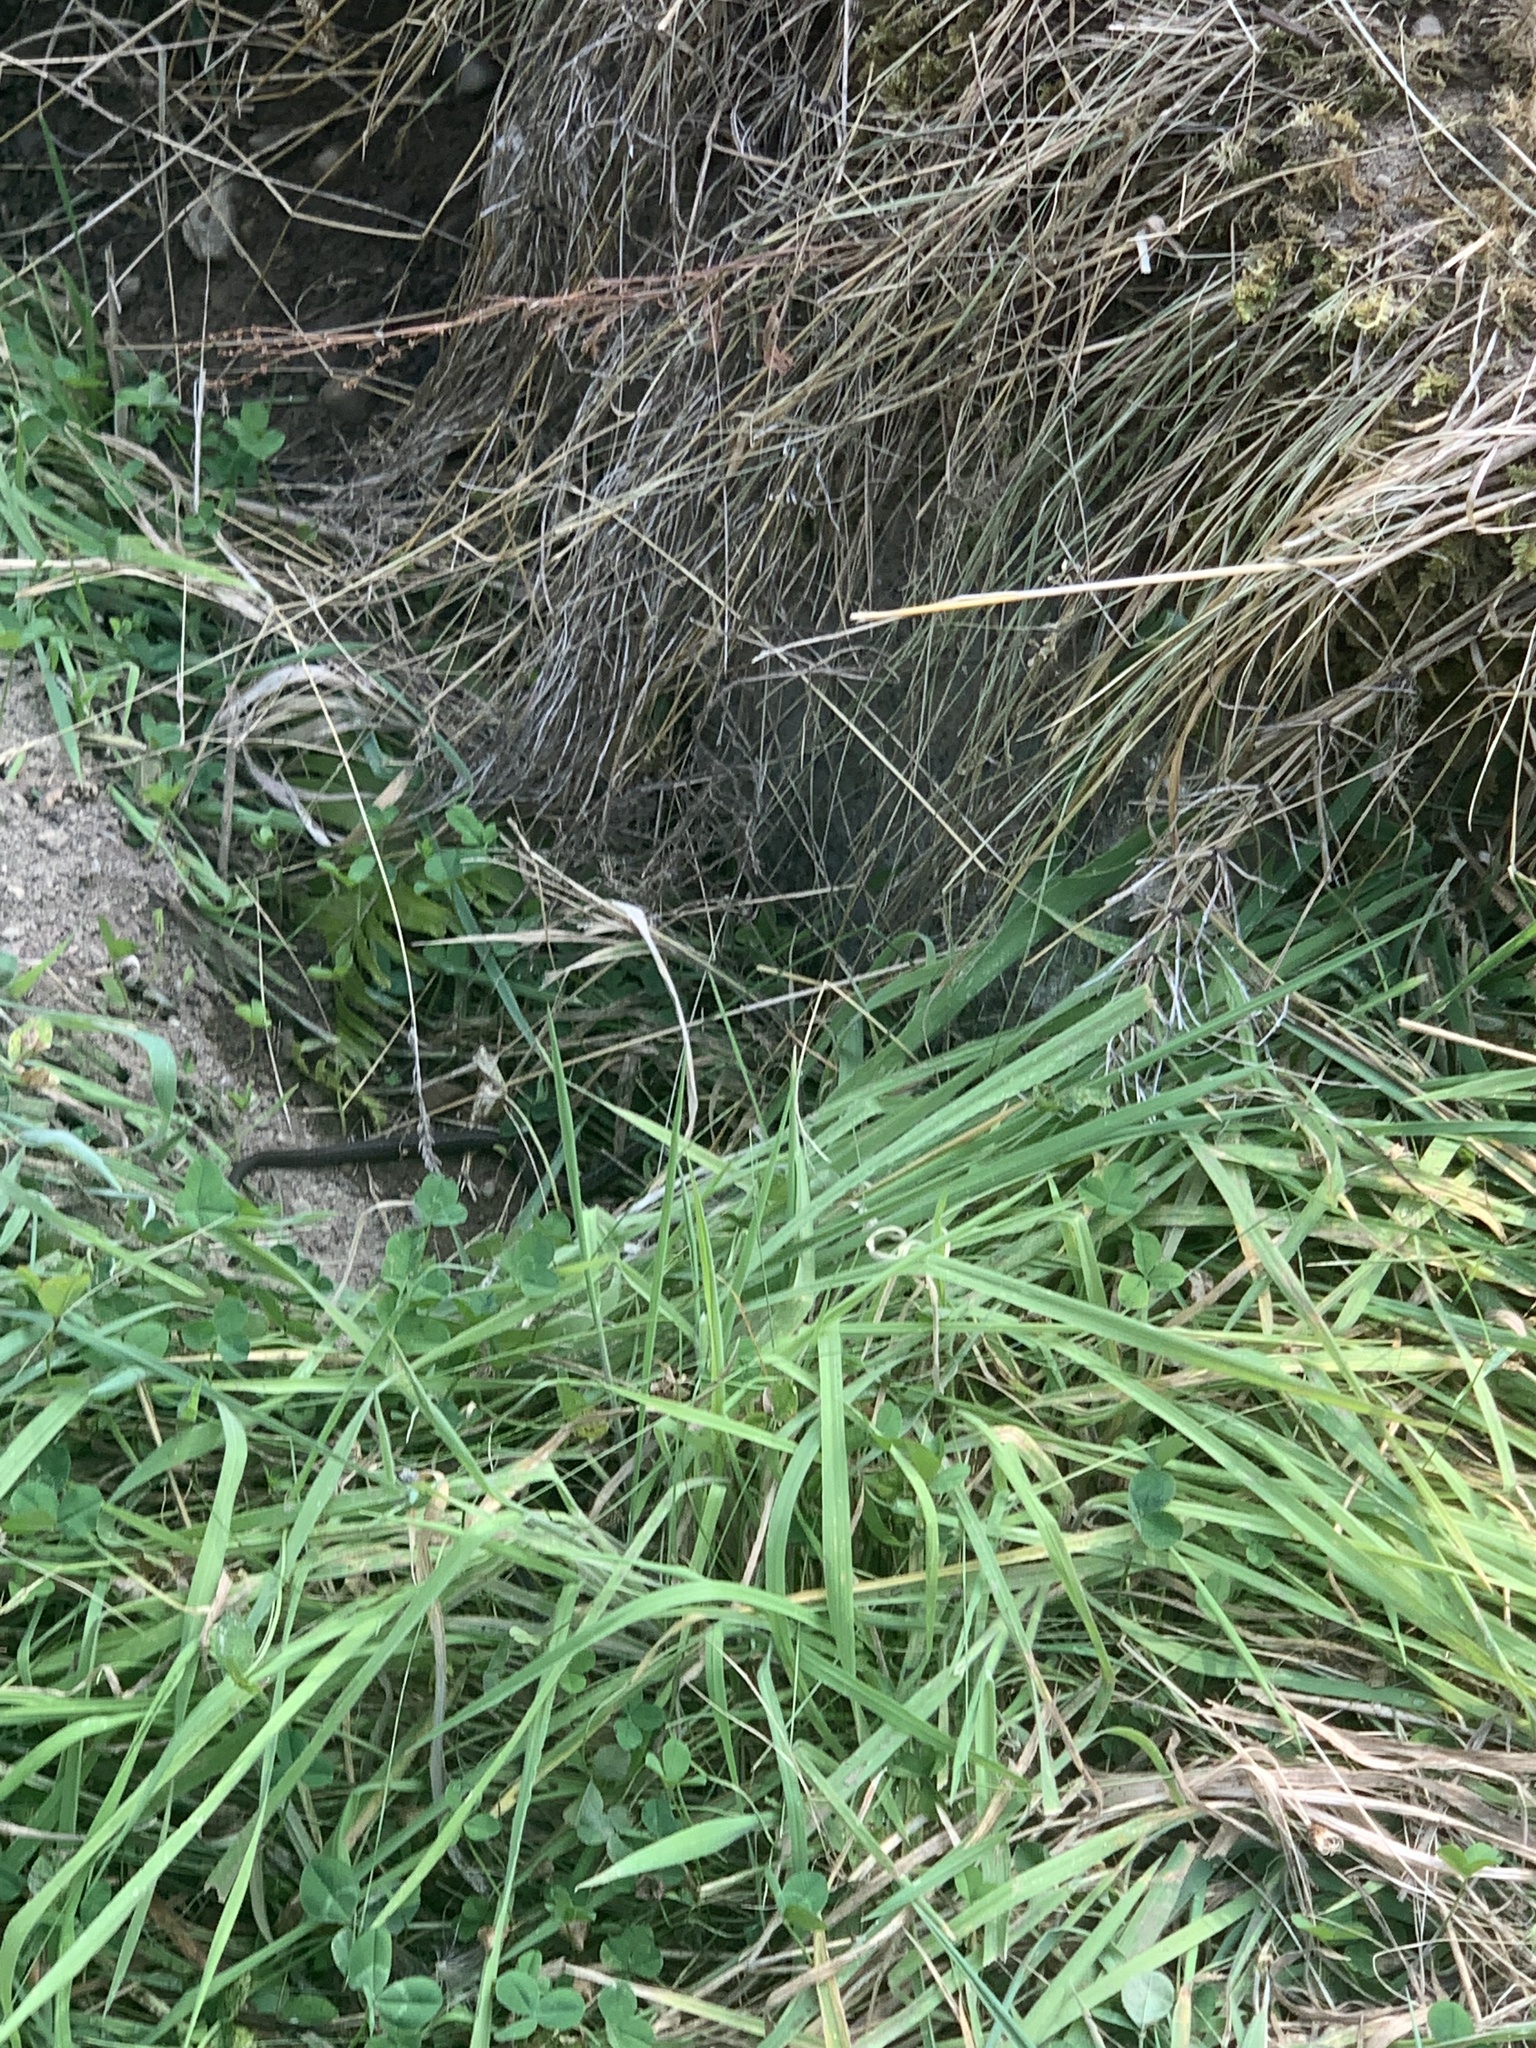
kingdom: Animalia
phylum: Chordata
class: Squamata
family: Colubridae
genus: Thamnophis
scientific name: Thamnophis elegans
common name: Western terrestrial garter snake
